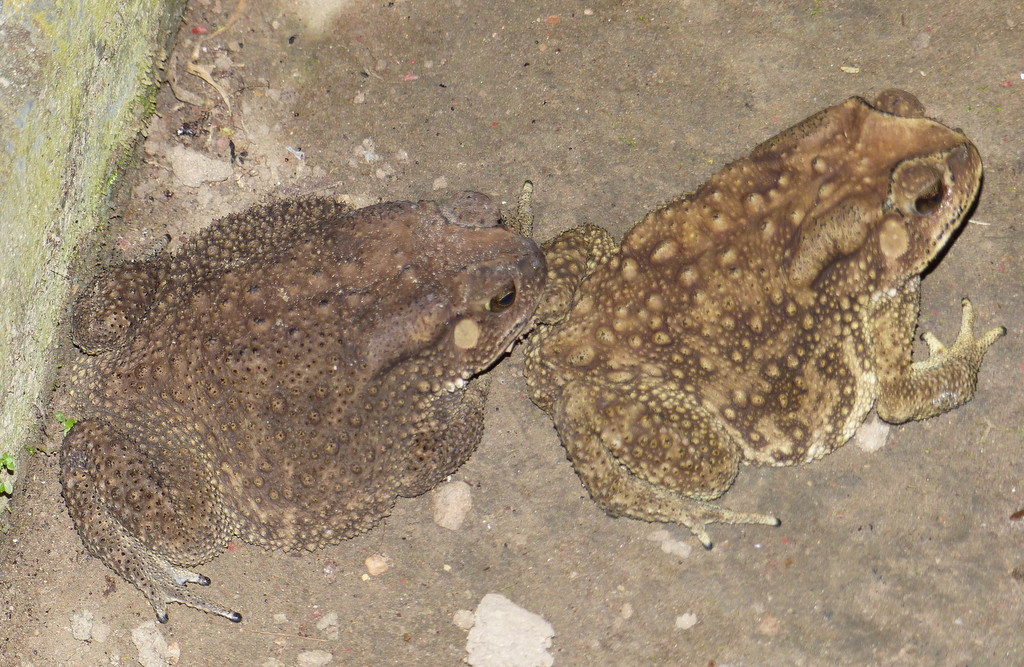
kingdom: Animalia
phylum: Chordata
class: Amphibia
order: Anura
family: Bufonidae
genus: Duttaphrynus
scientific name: Duttaphrynus melanostictus
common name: Common sunda toad
